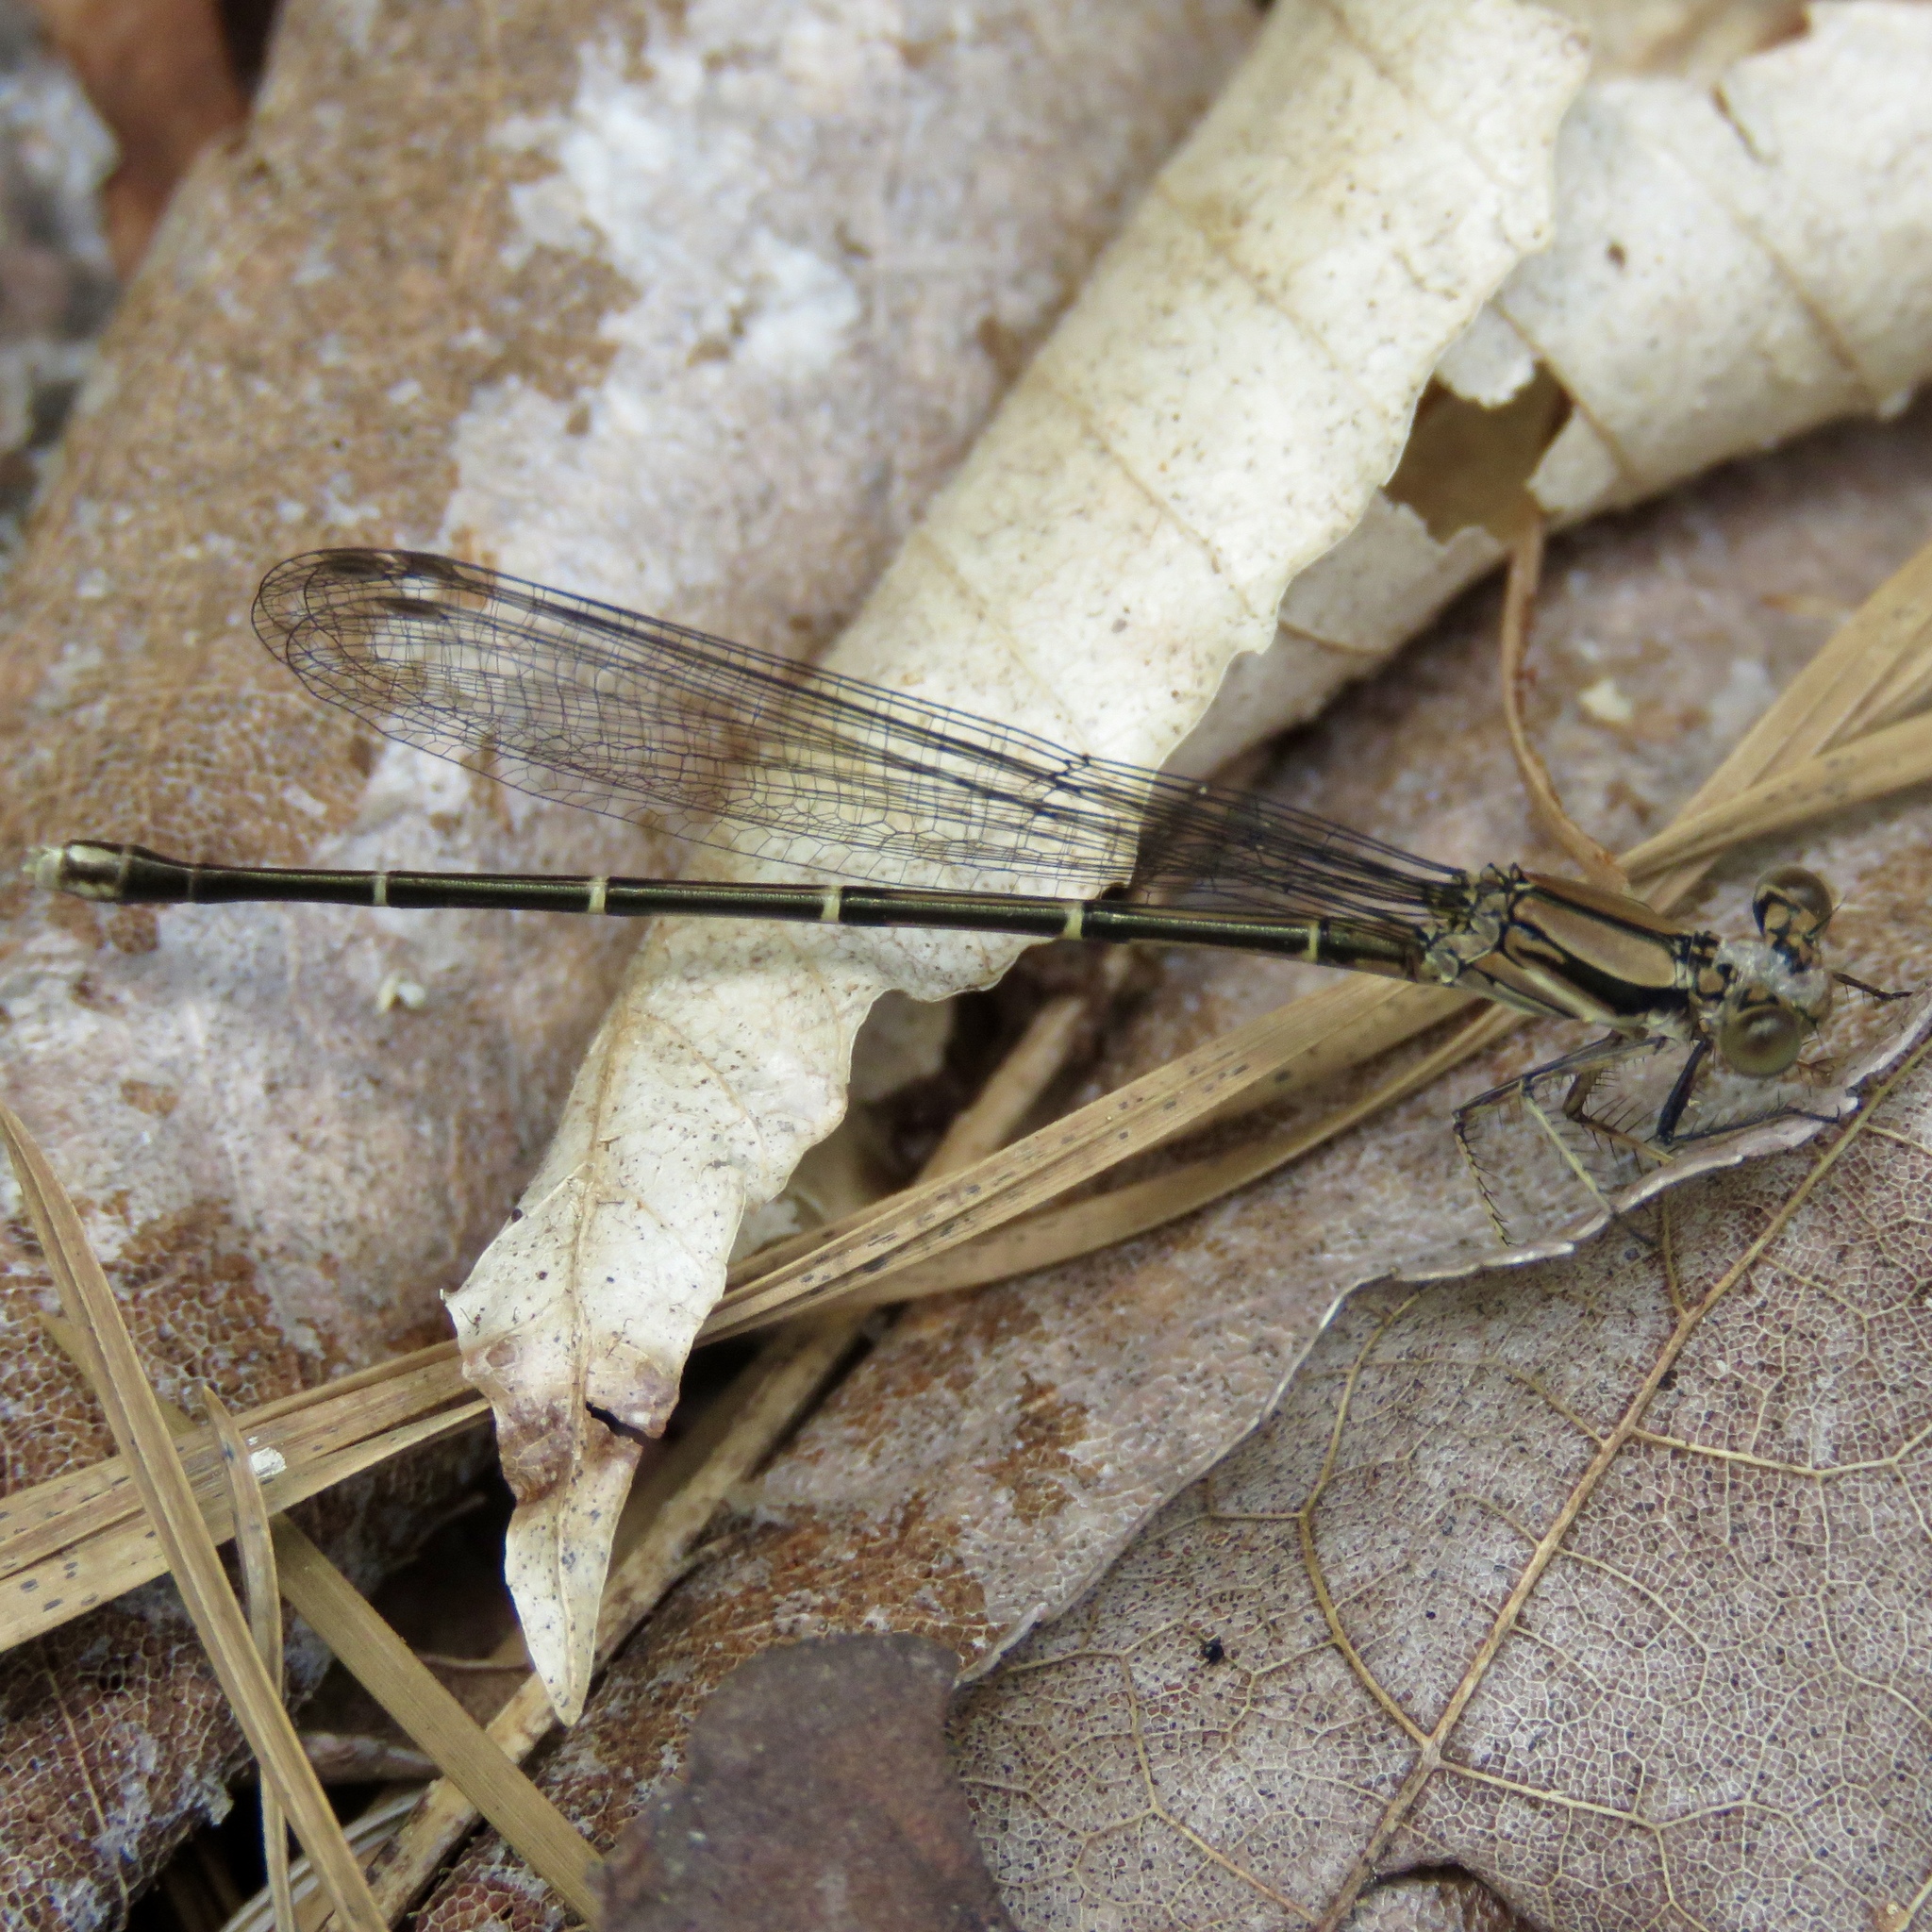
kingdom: Animalia
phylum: Arthropoda
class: Insecta
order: Odonata
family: Coenagrionidae
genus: Argia
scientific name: Argia tibialis
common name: Blue-tipped dancer
